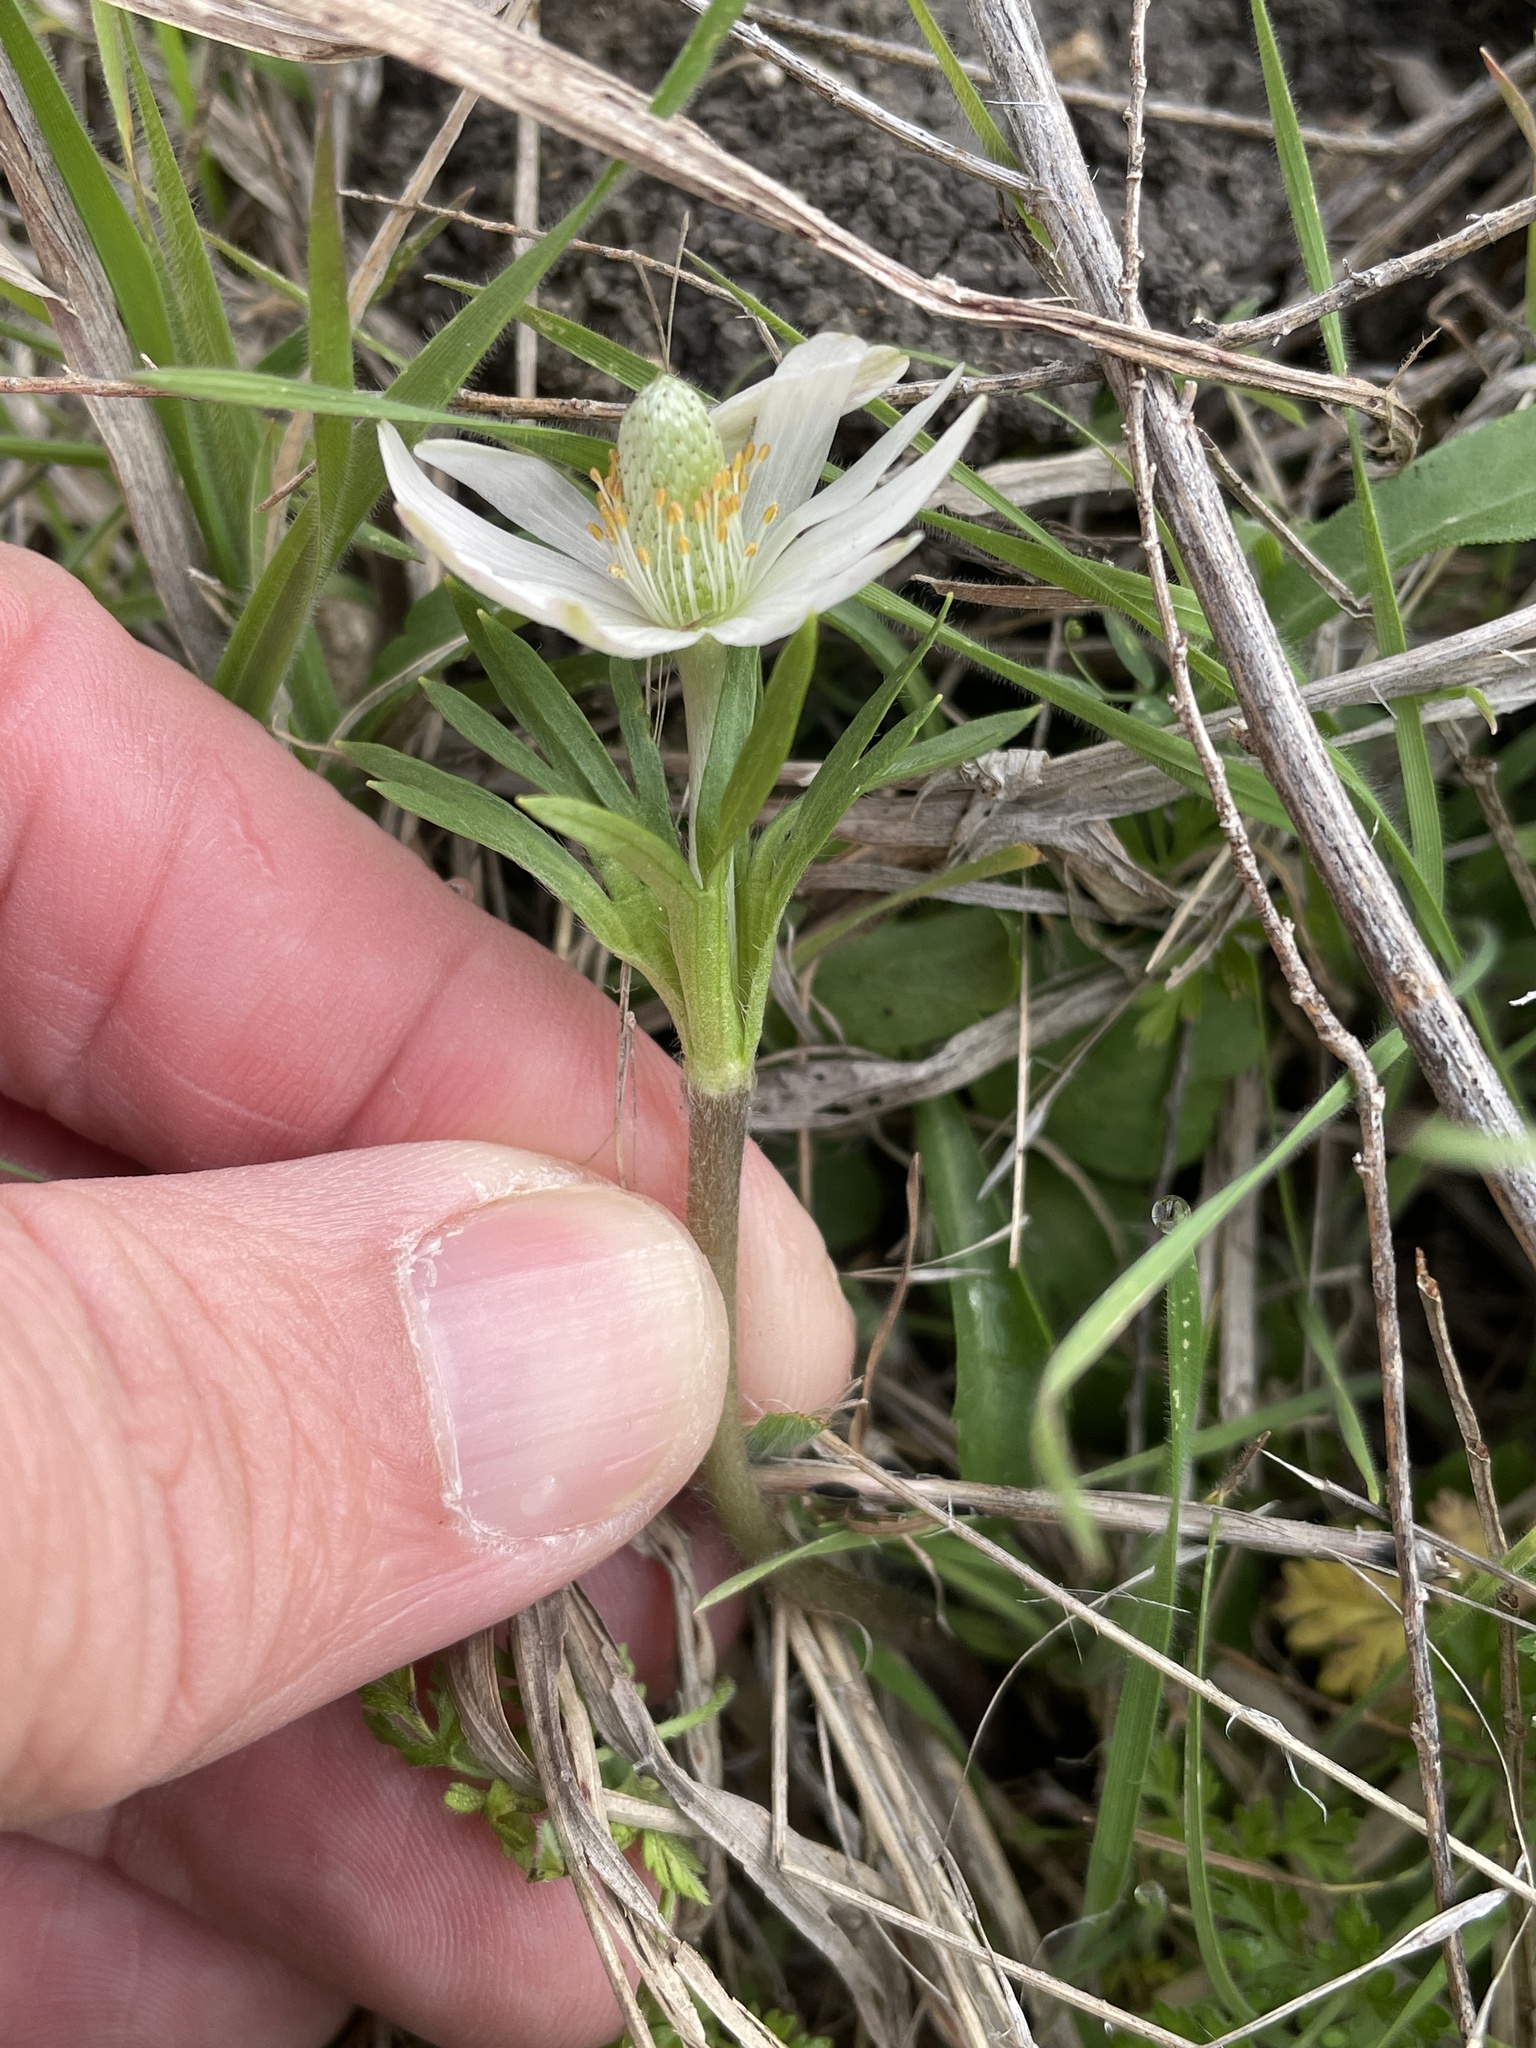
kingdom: Plantae
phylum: Tracheophyta
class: Magnoliopsida
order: Ranunculales
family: Ranunculaceae
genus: Anemone
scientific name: Anemone berlandieri
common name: Ten-petal anemone
